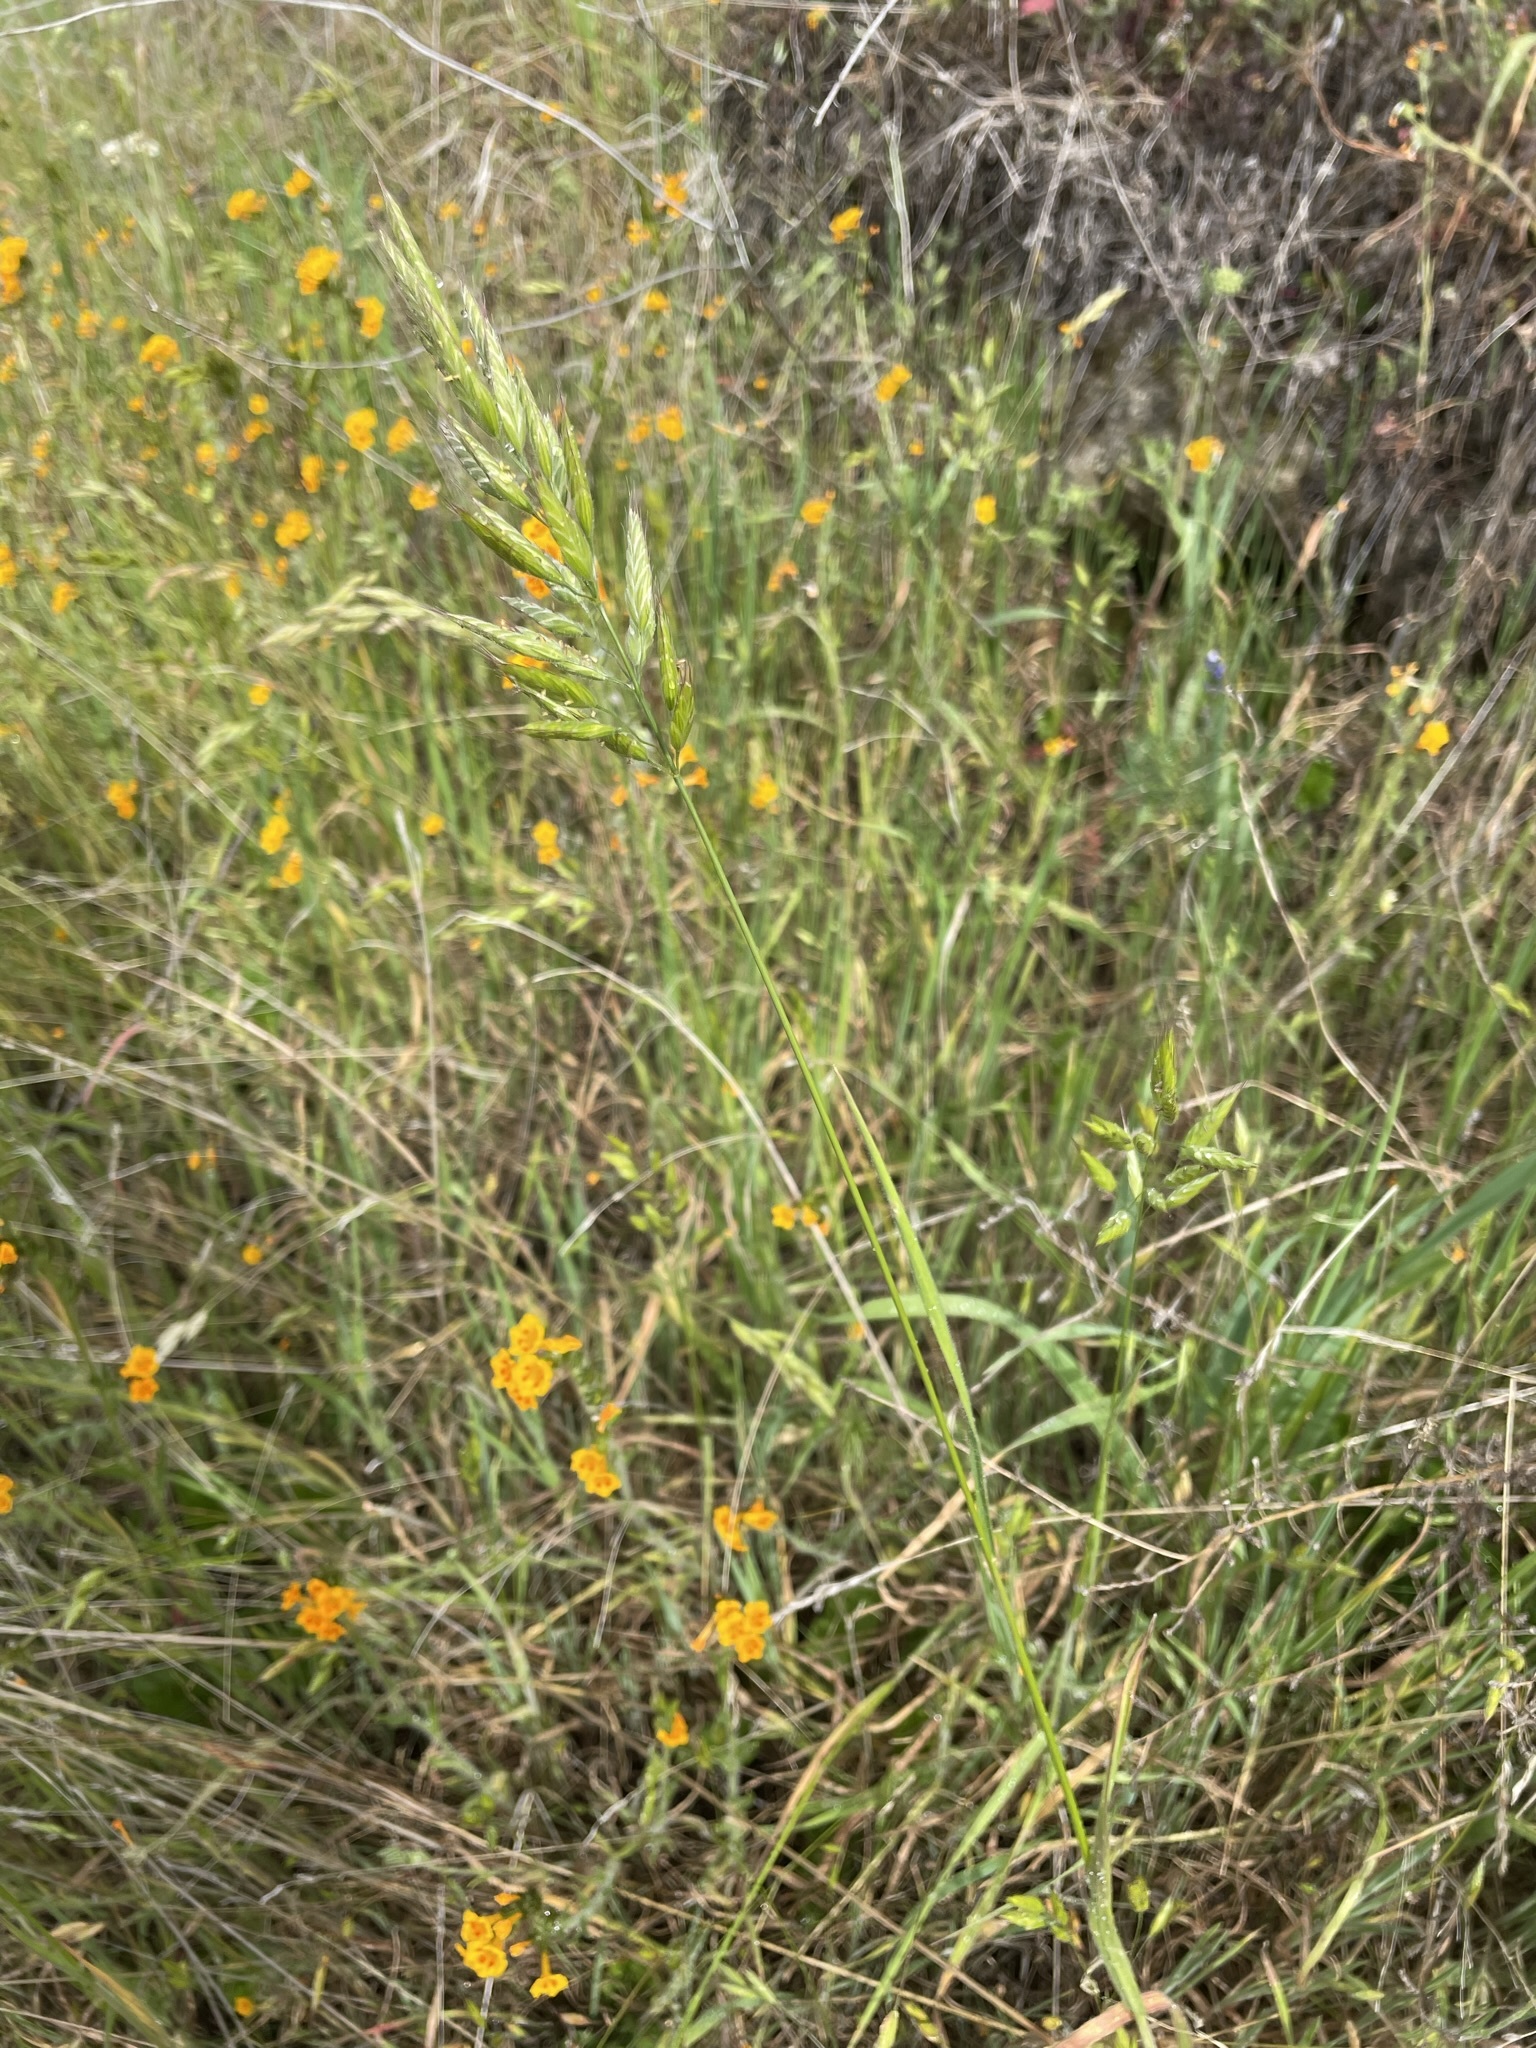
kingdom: Plantae
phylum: Tracheophyta
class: Liliopsida
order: Poales
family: Poaceae
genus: Bromus
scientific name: Bromus hordeaceus
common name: Soft brome
